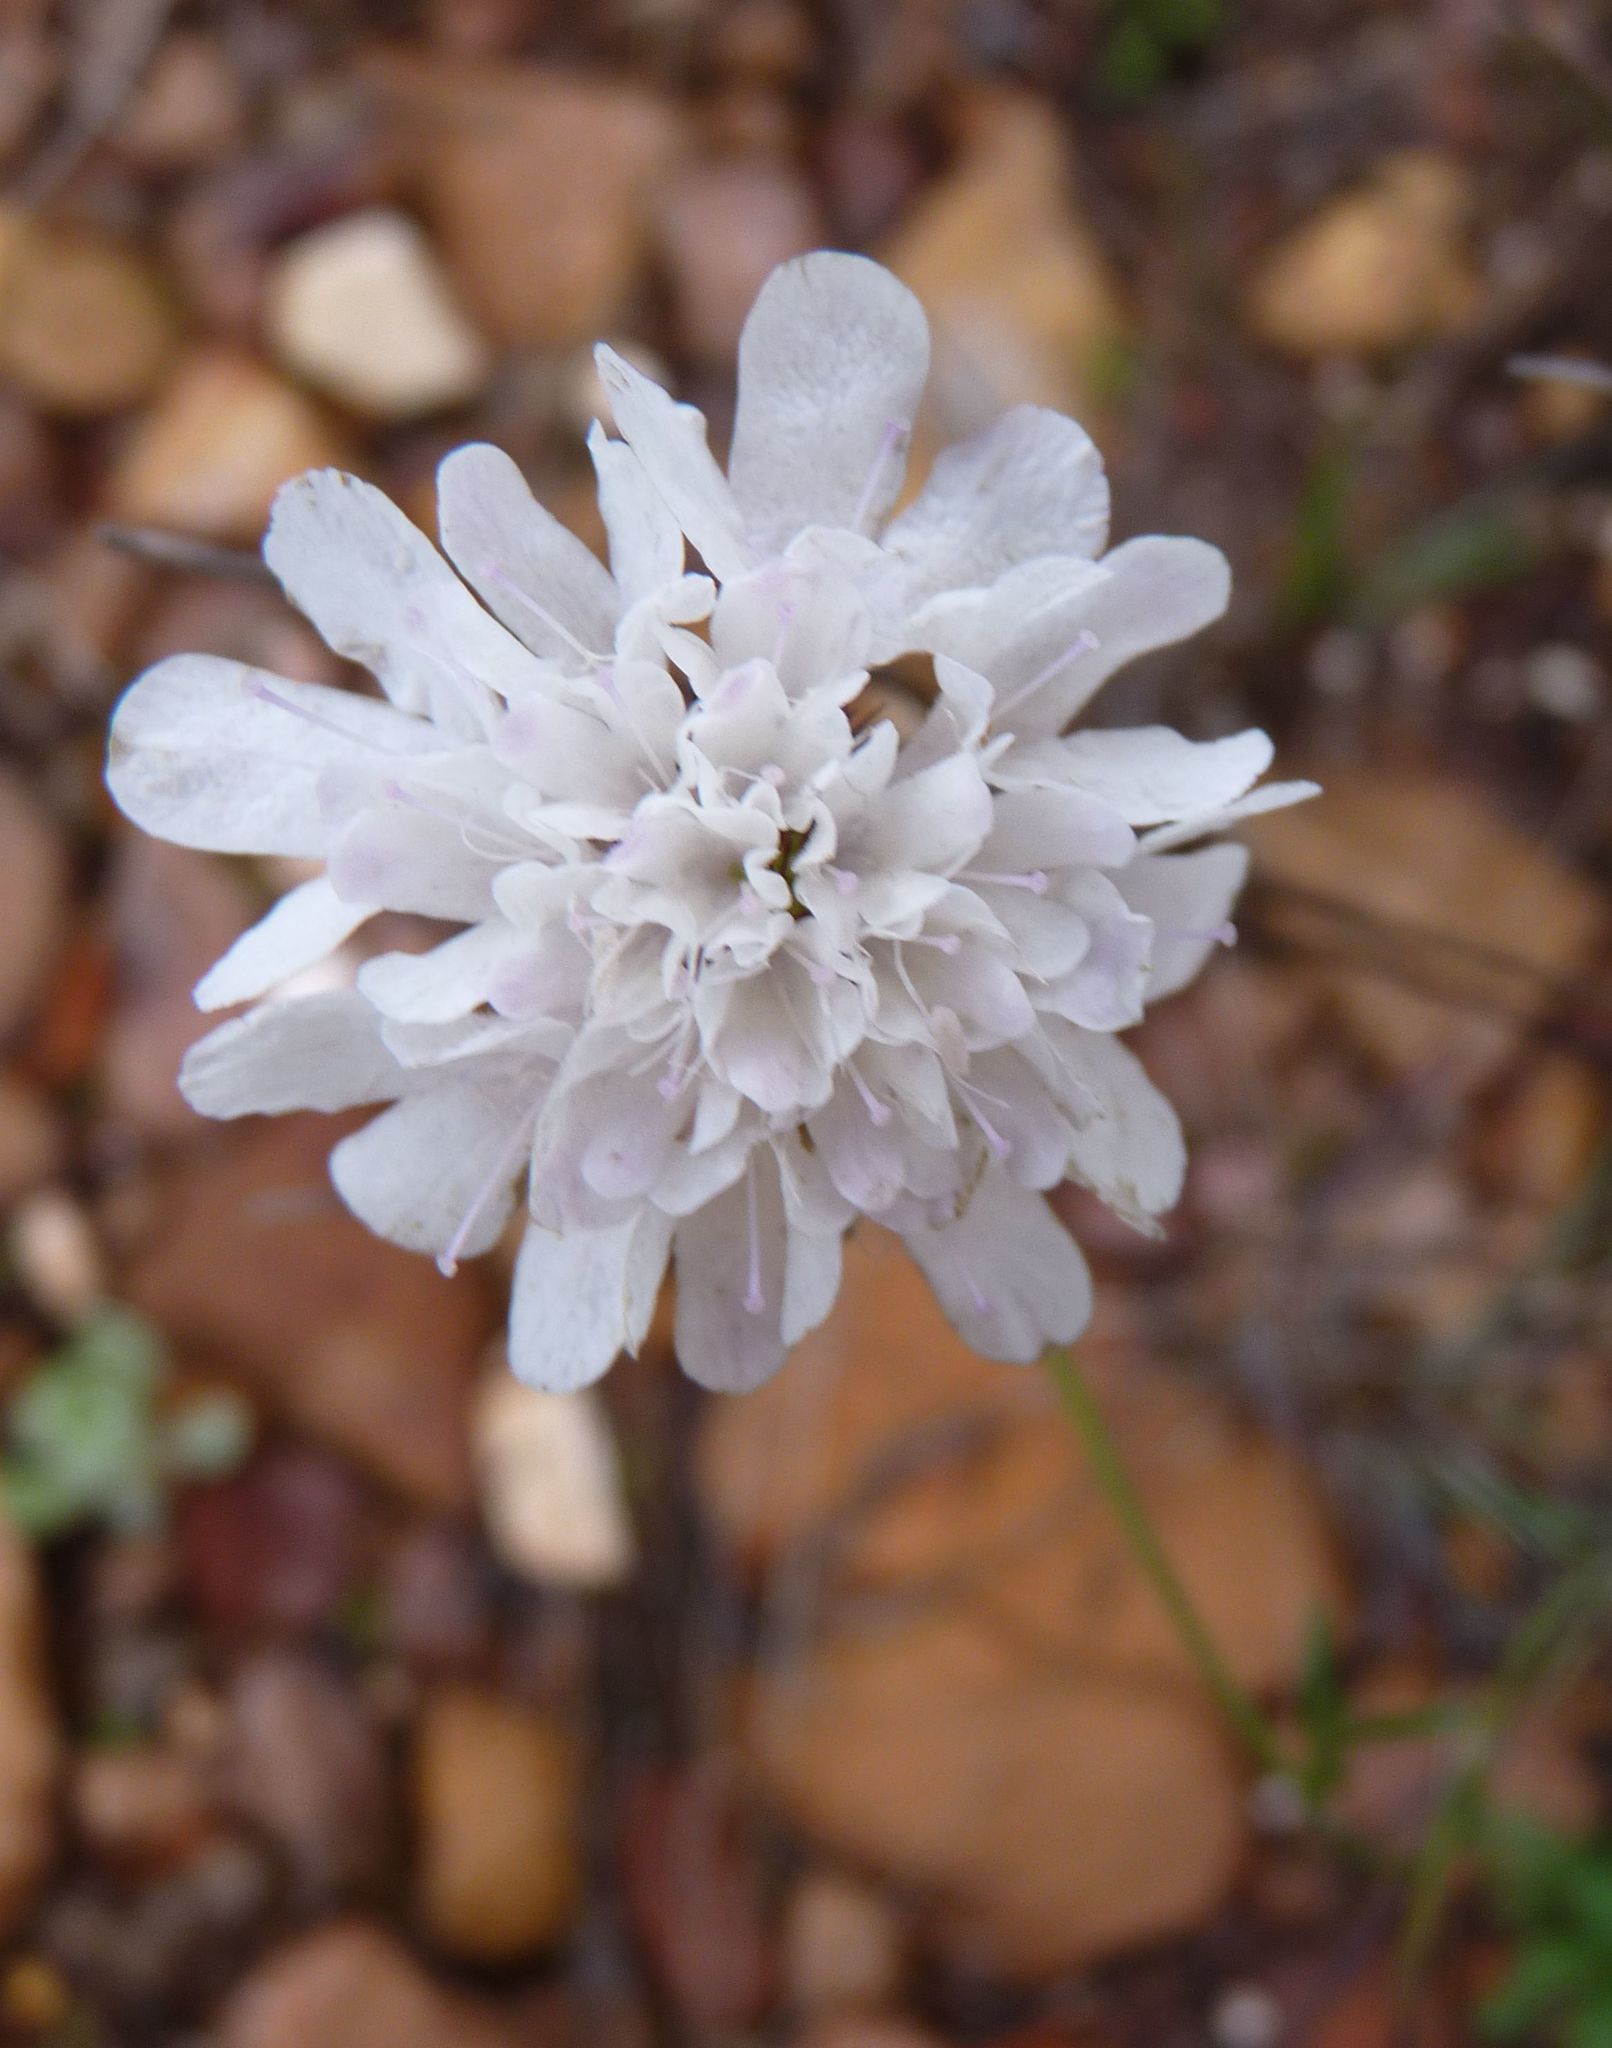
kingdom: Plantae
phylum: Tracheophyta
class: Magnoliopsida
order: Dipsacales
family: Caprifoliaceae
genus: Scabiosa
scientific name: Scabiosa columbaria
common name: Small scabious
